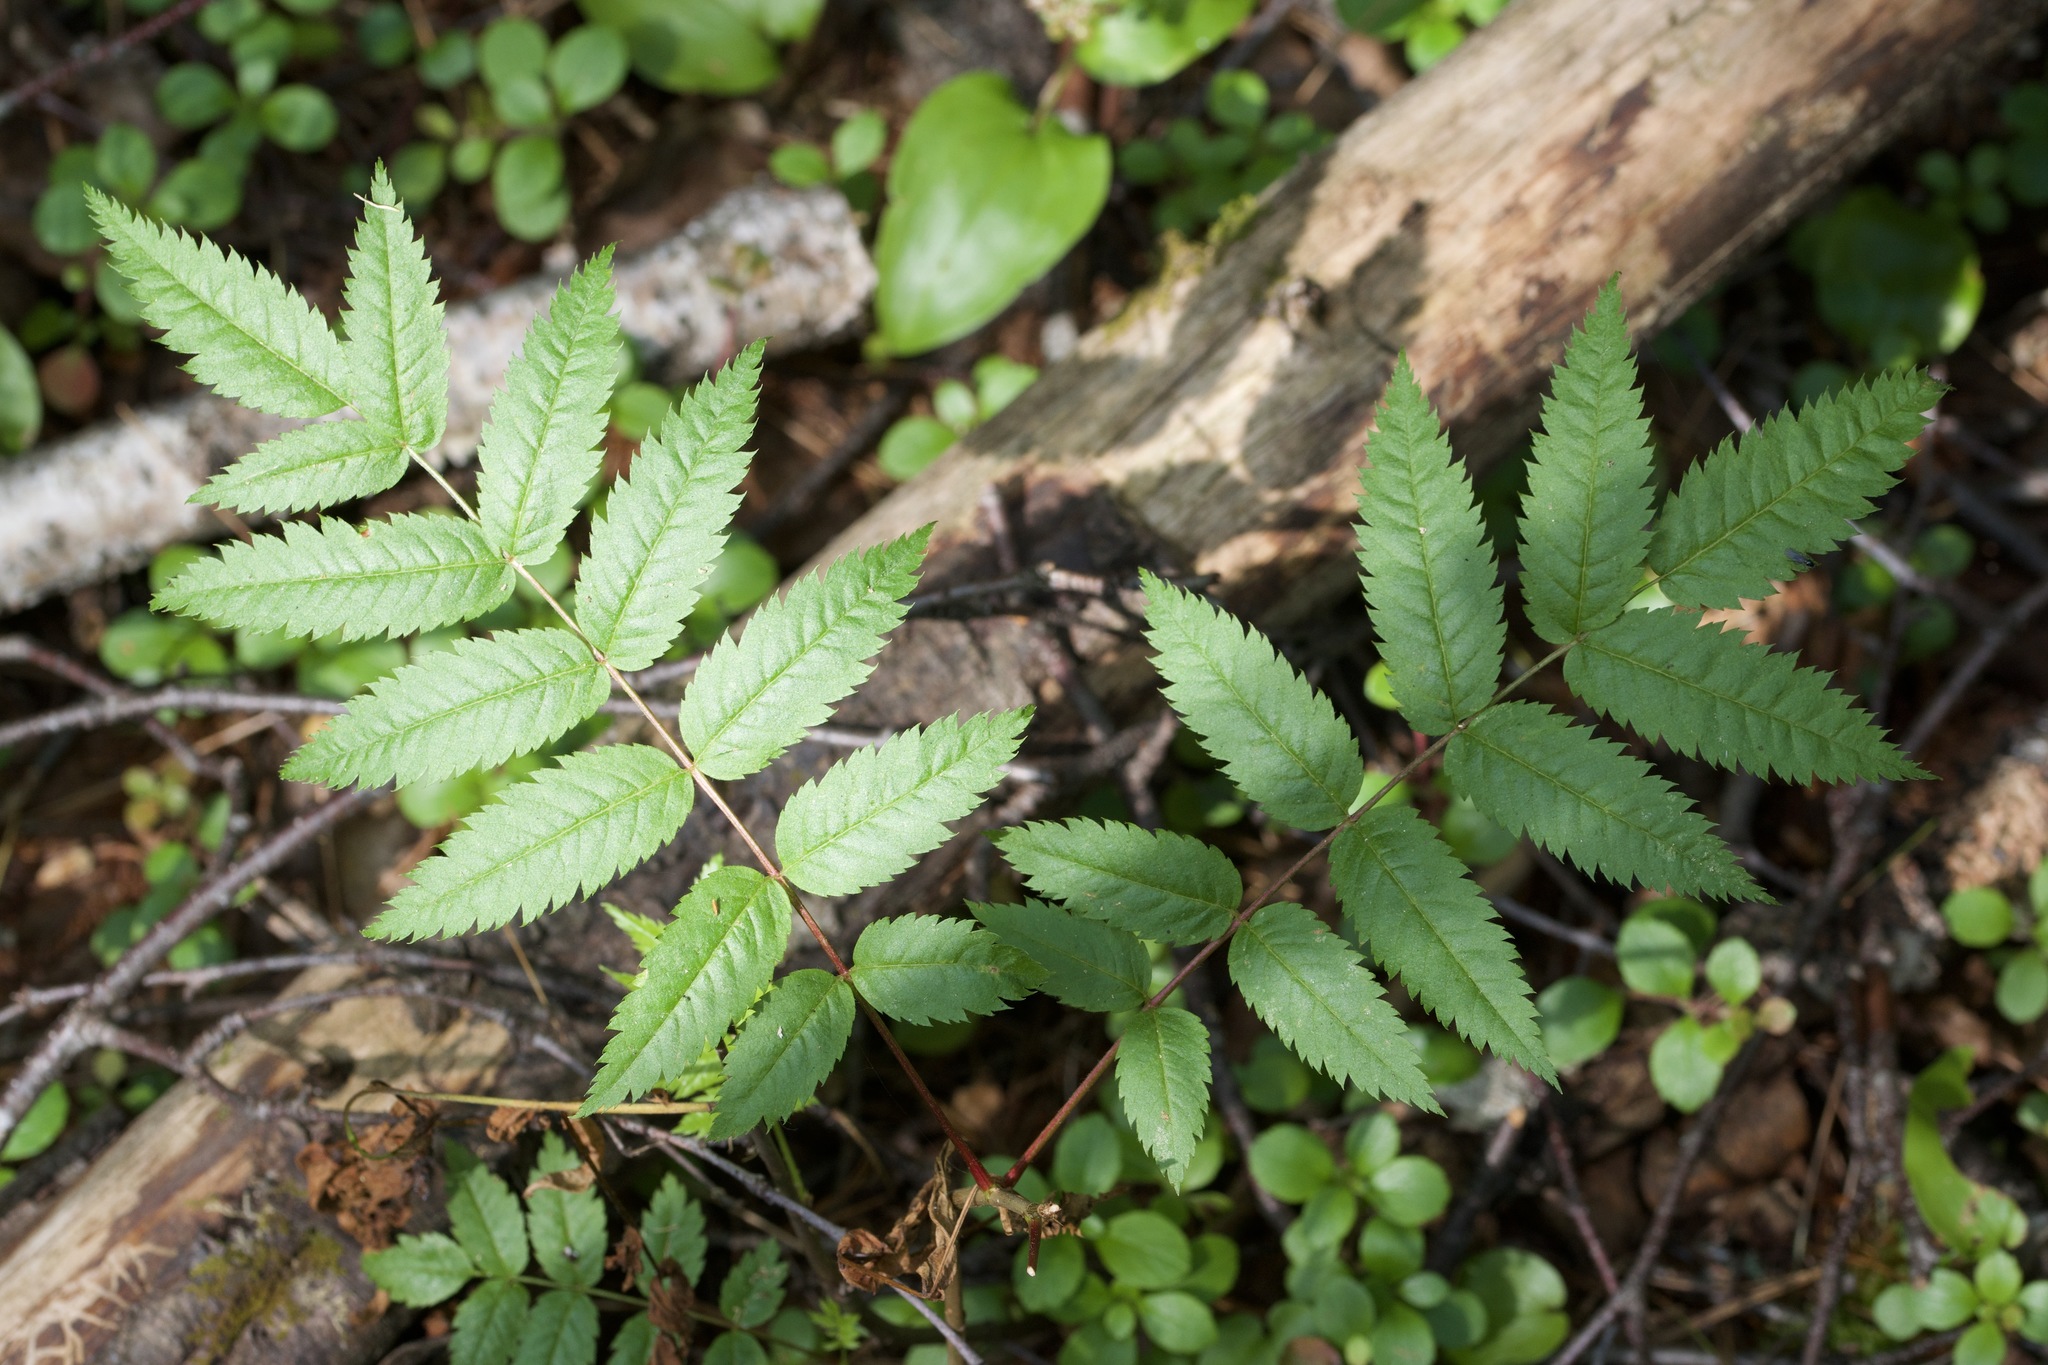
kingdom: Plantae
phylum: Tracheophyta
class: Magnoliopsida
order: Rosales
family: Rosaceae
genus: Sorbus
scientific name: Sorbus americana
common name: American mountain-ash
